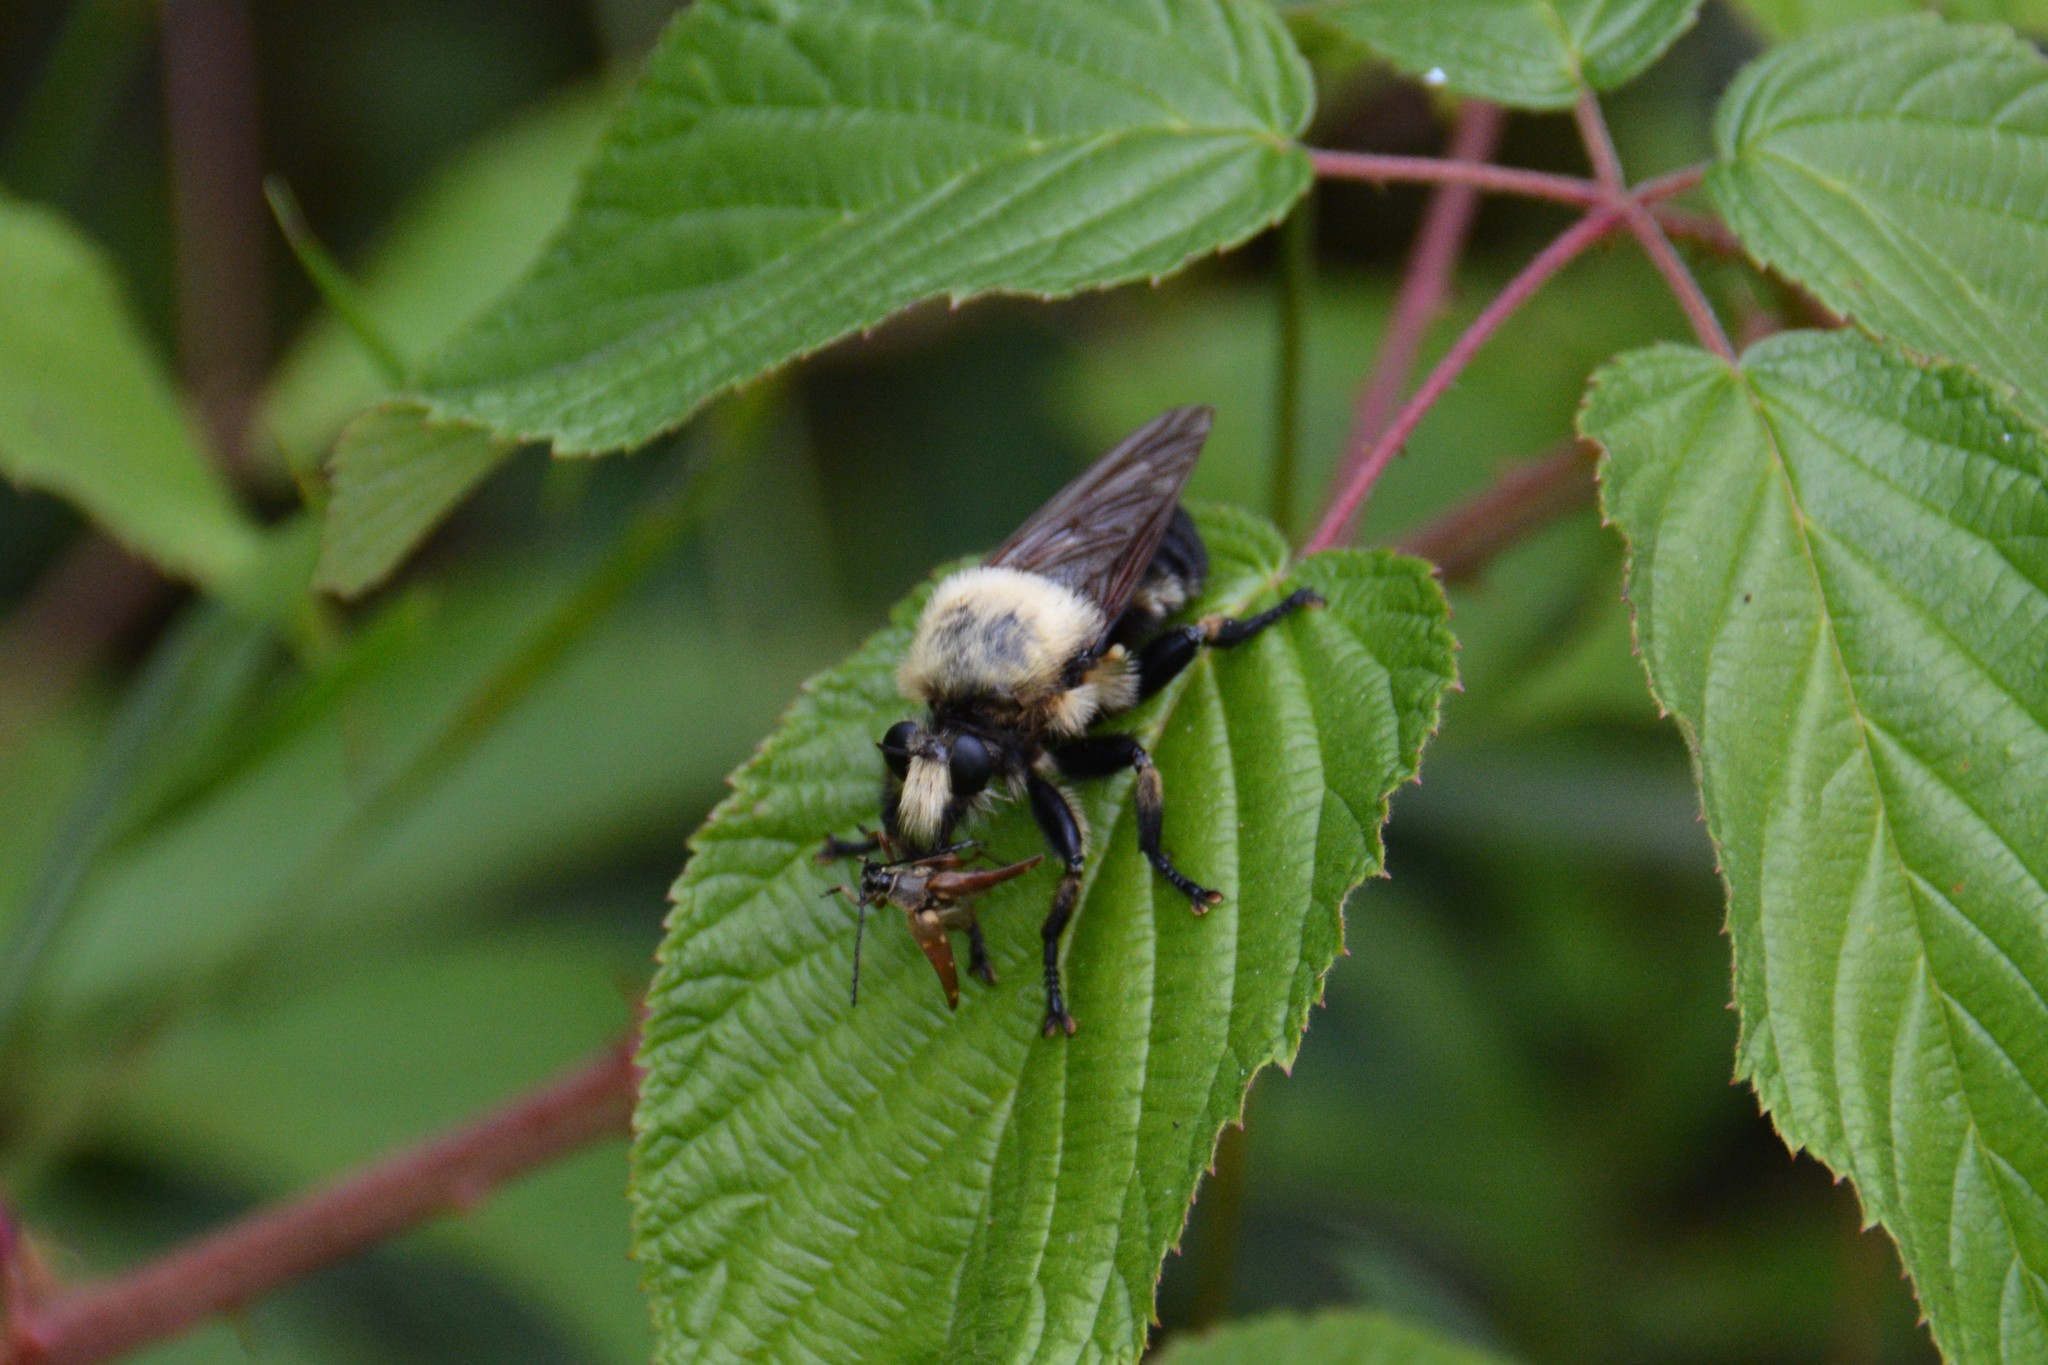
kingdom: Animalia
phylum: Arthropoda
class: Insecta
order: Diptera
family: Asilidae
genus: Laphria
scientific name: Laphria grossa
